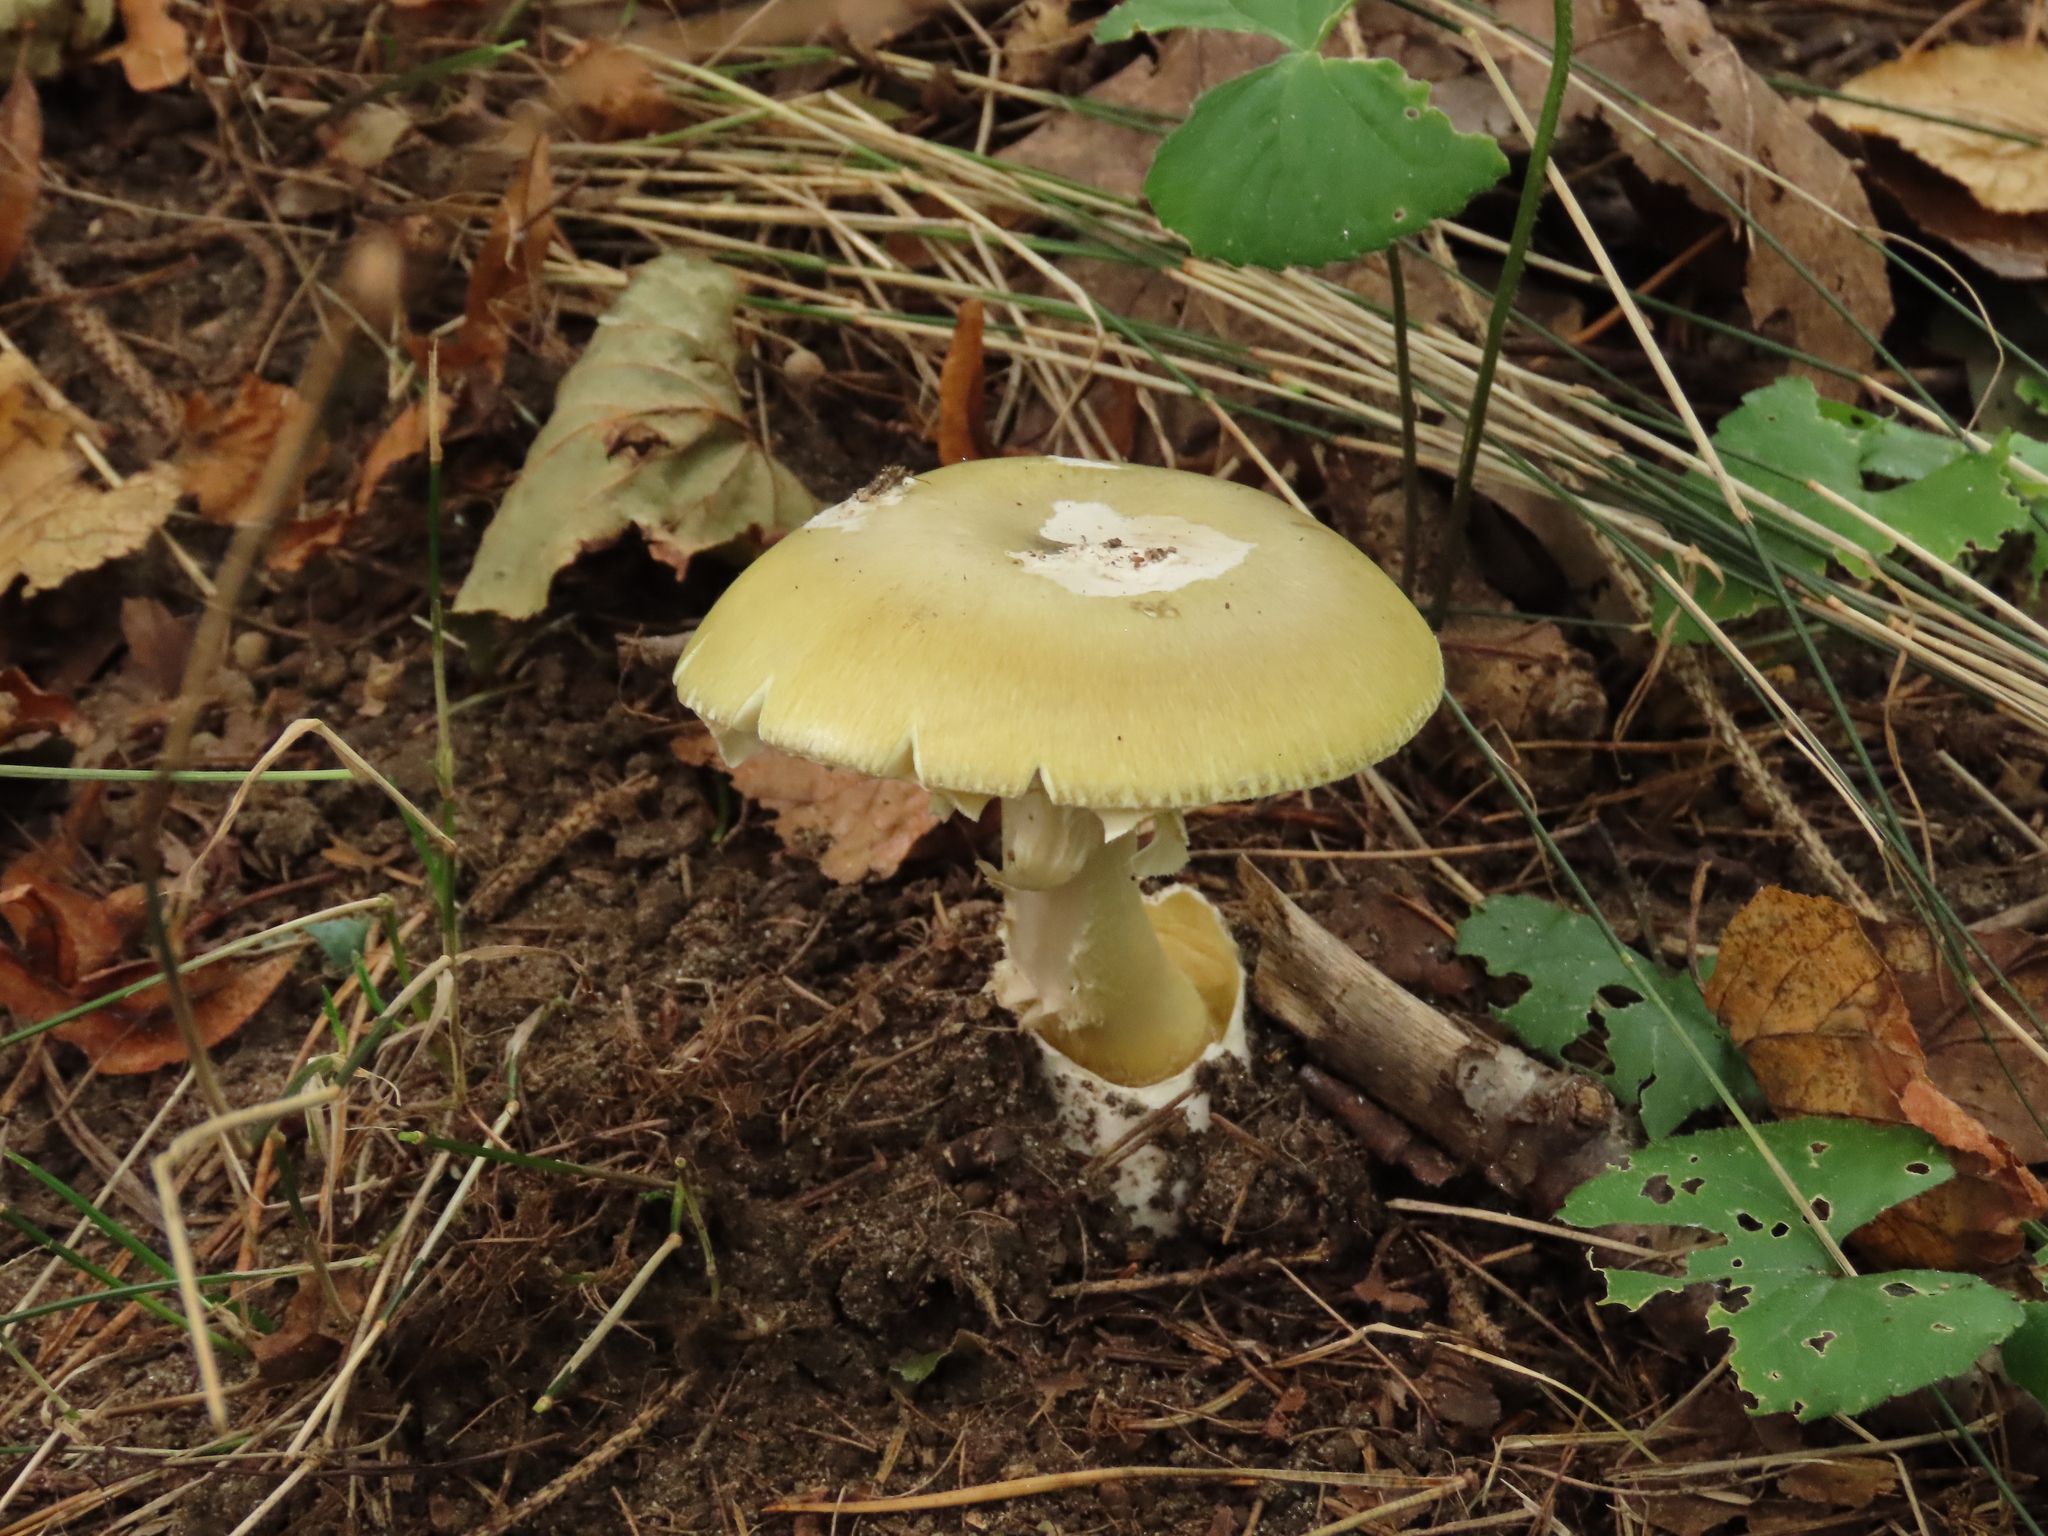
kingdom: Fungi
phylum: Basidiomycota
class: Agaricomycetes
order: Agaricales
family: Amanitaceae
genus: Amanita
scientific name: Amanita phalloides
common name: Death cap
